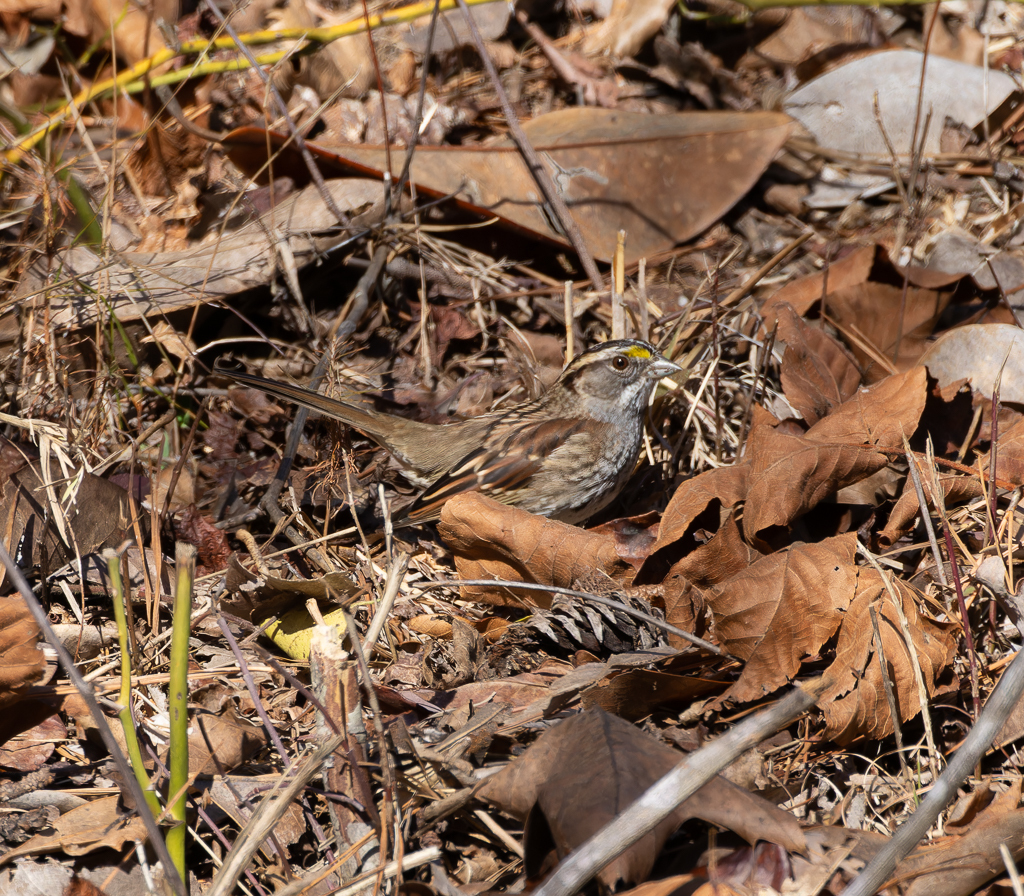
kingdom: Animalia
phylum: Chordata
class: Aves
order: Passeriformes
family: Passerellidae
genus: Zonotrichia
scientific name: Zonotrichia albicollis
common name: White-throated sparrow
